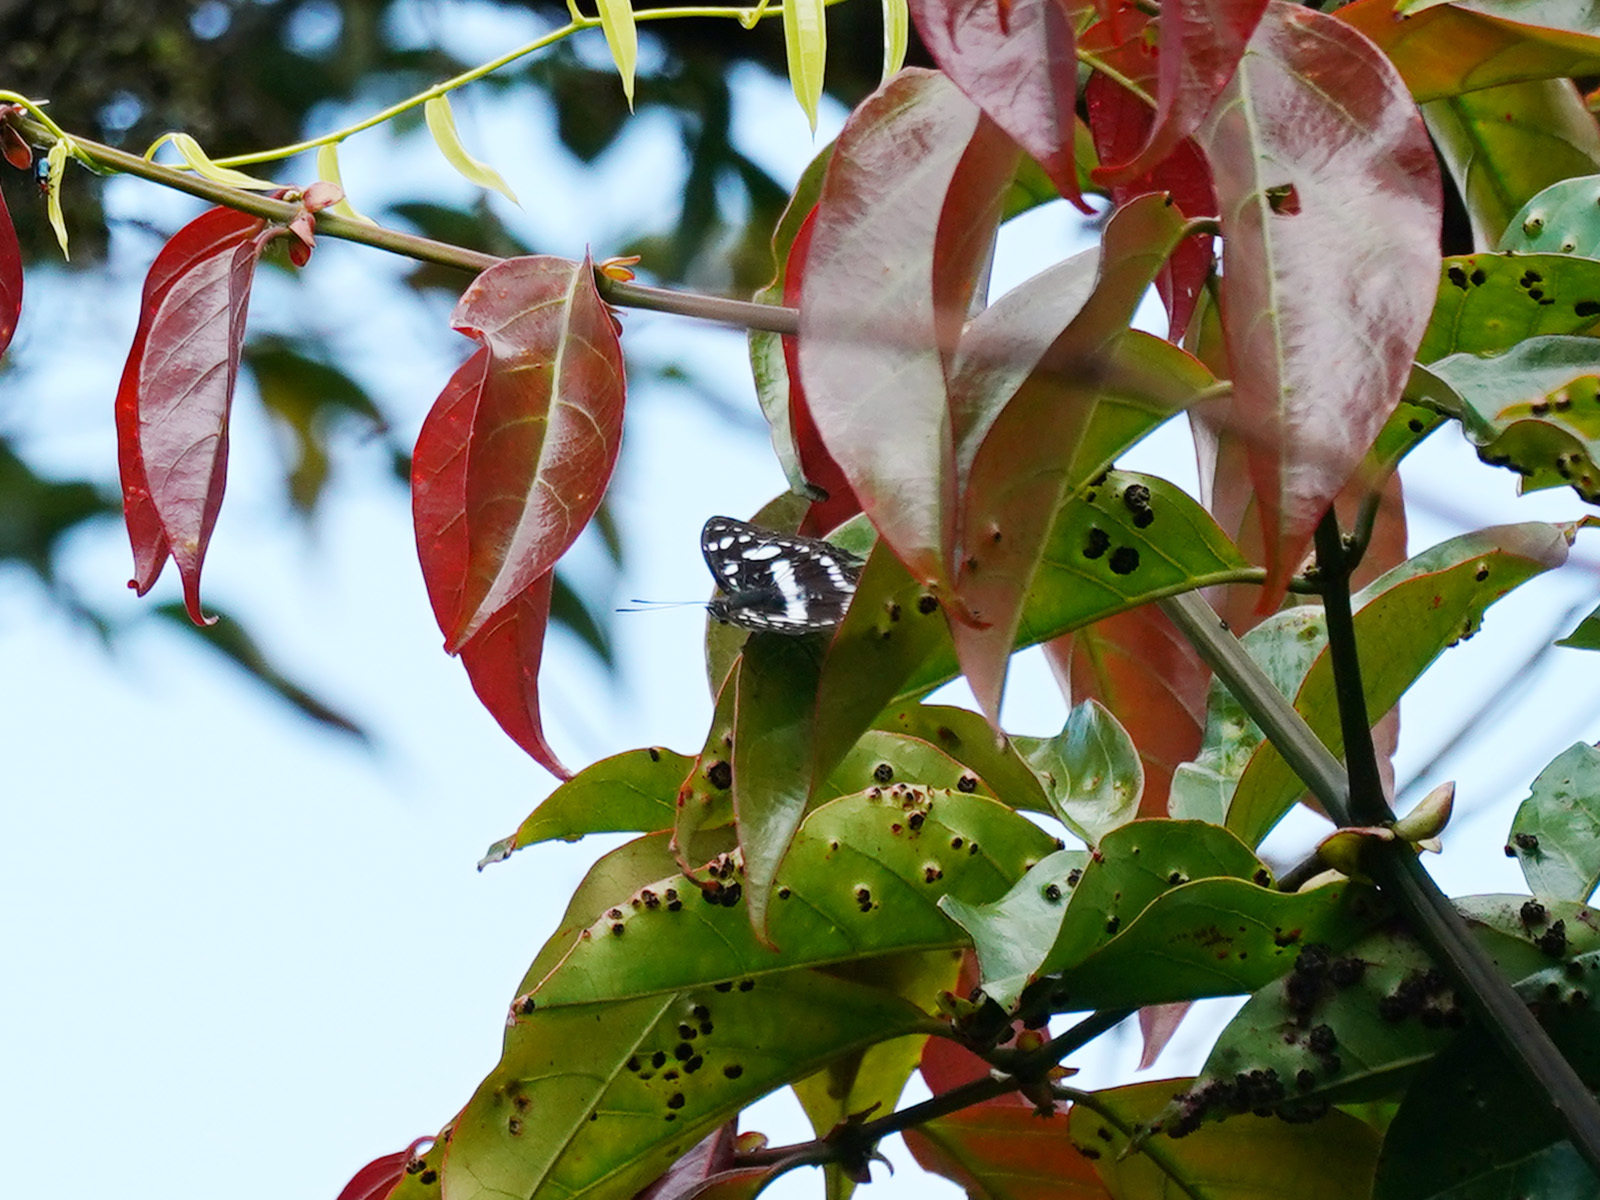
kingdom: Animalia
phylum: Arthropoda
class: Insecta
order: Lepidoptera
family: Nymphalidae
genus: Pantoporia
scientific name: Pantoporia
